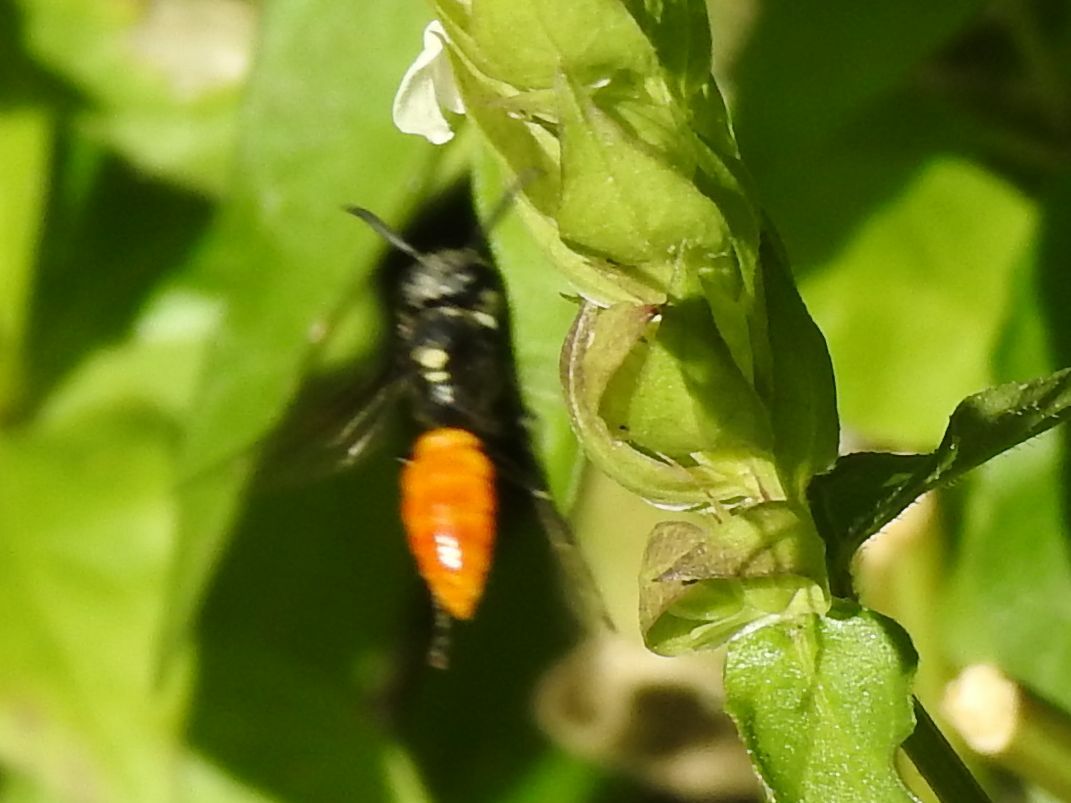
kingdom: Animalia
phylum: Arthropoda
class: Insecta
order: Hymenoptera
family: Crabronidae
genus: Philanthus
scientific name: Philanthus loeflingi
